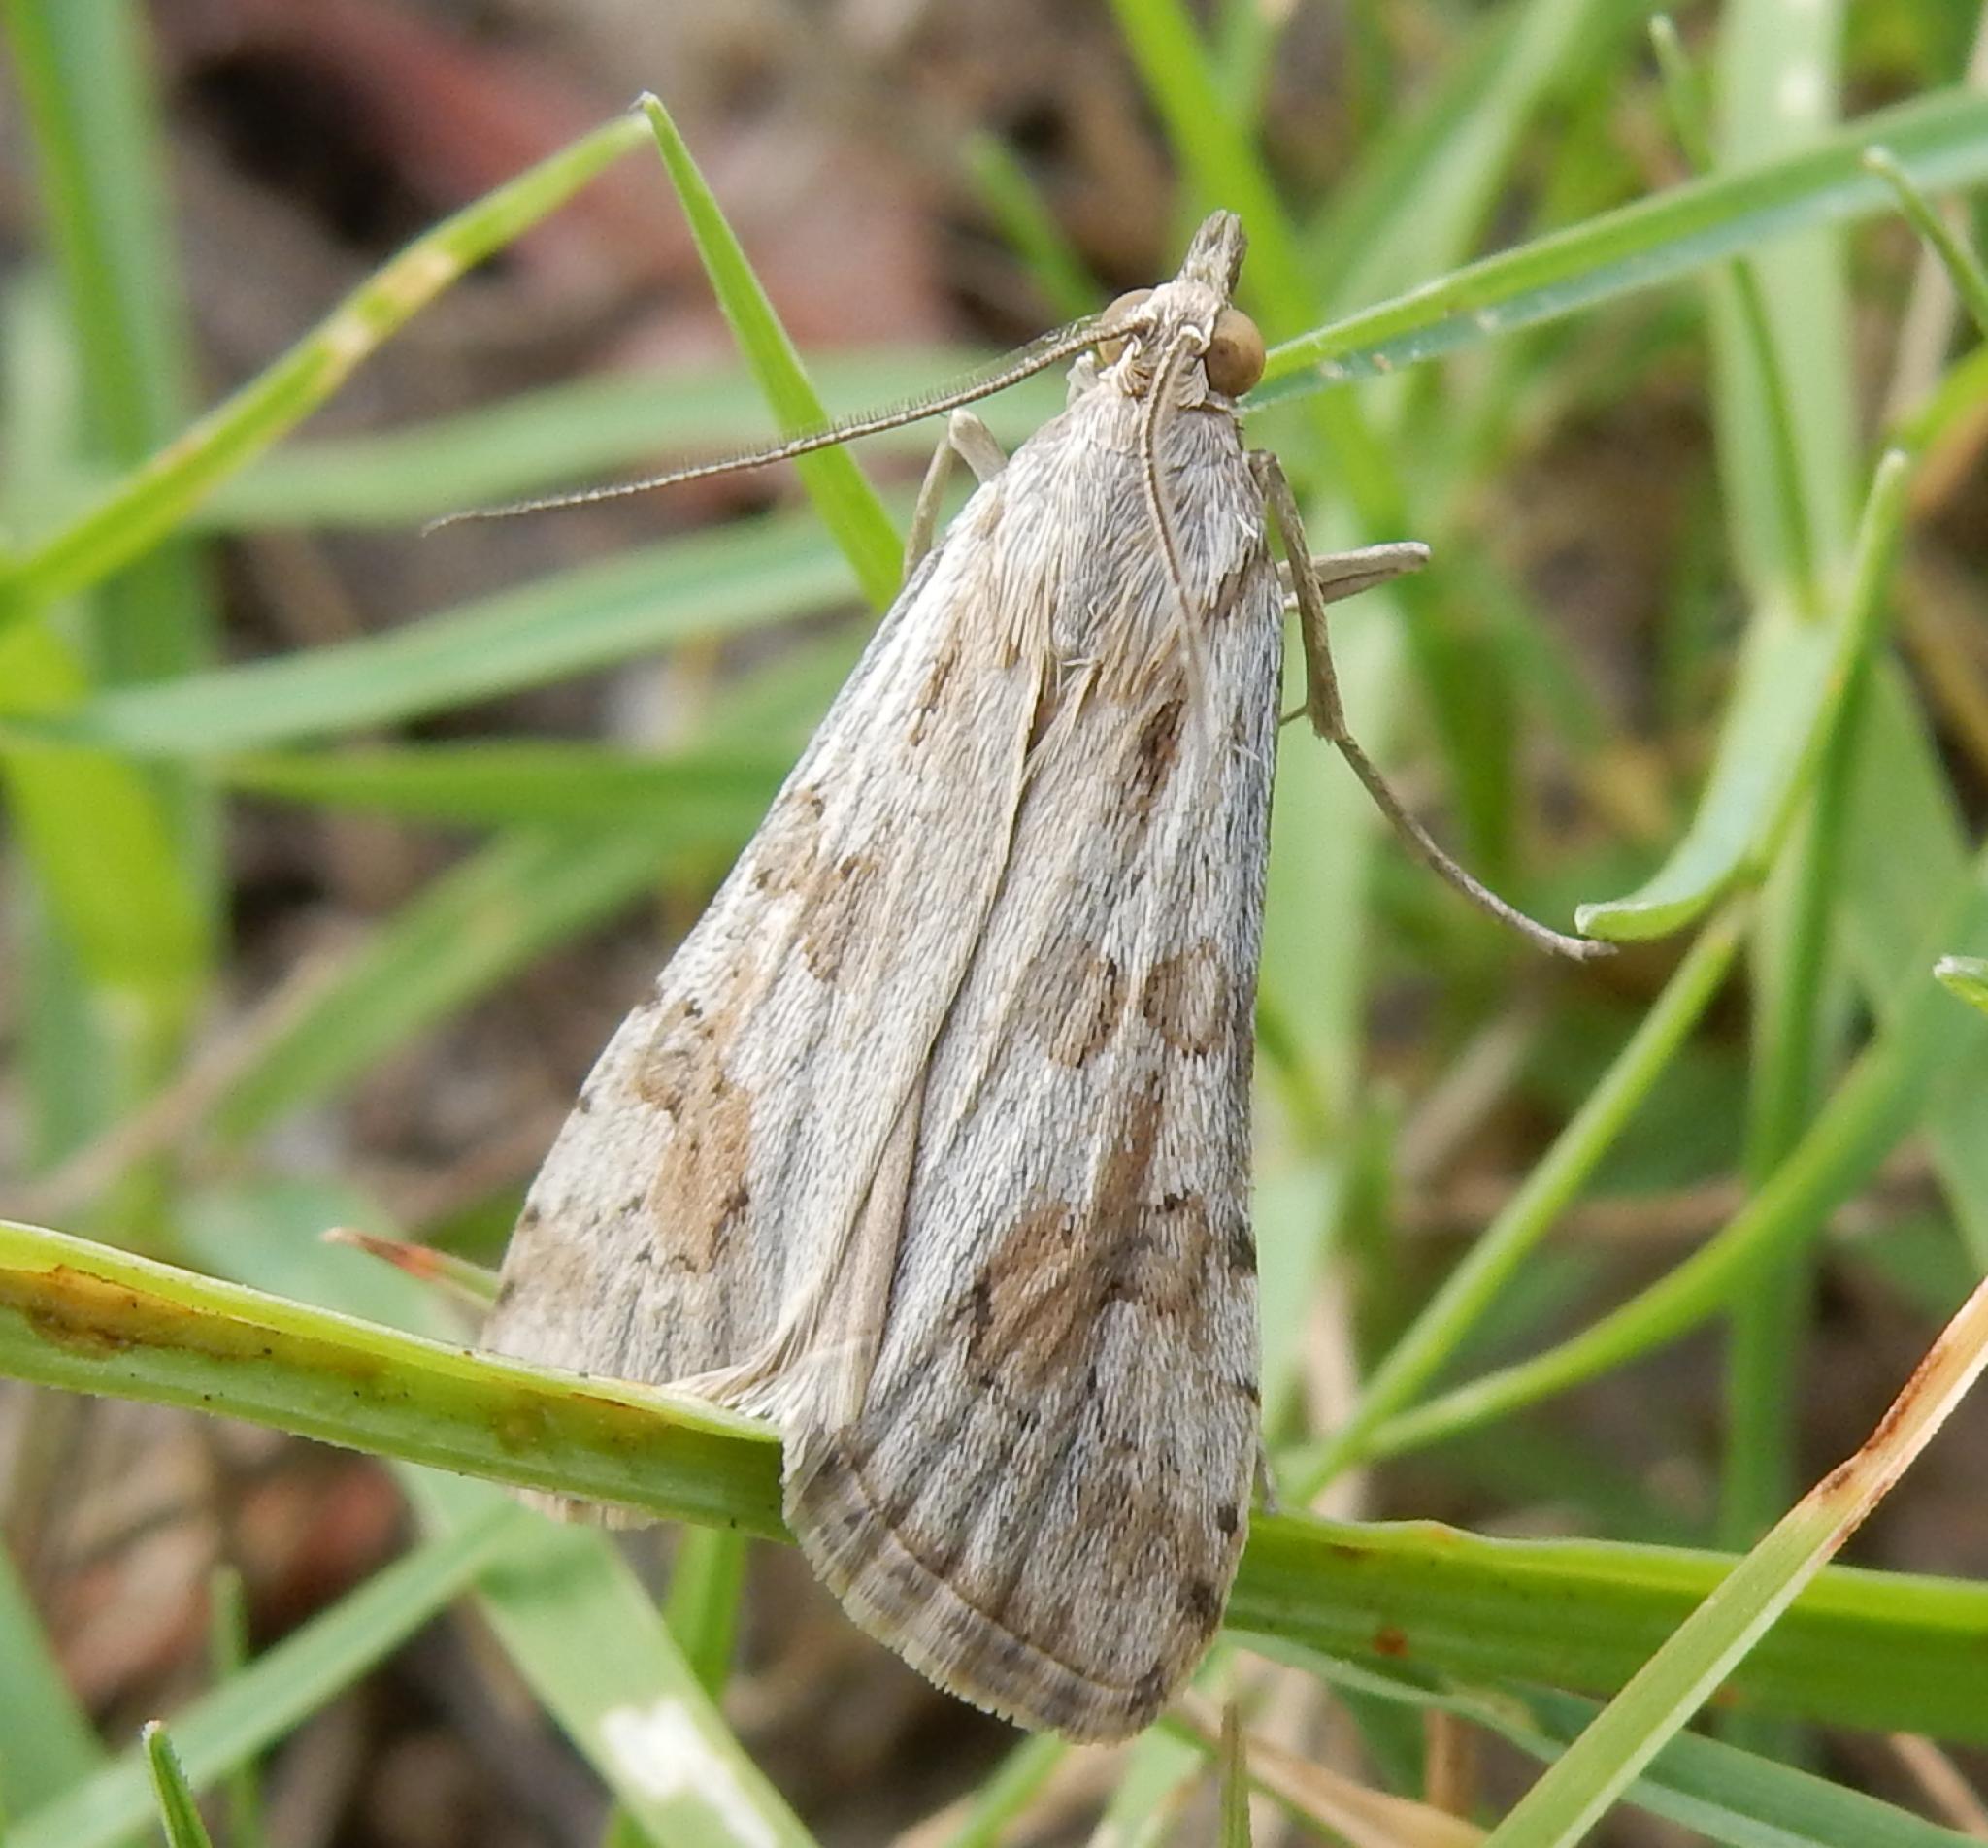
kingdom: Animalia
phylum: Arthropoda
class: Insecta
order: Lepidoptera
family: Crambidae
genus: Nomophila
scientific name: Nomophila noctuella
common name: Rush veneer
